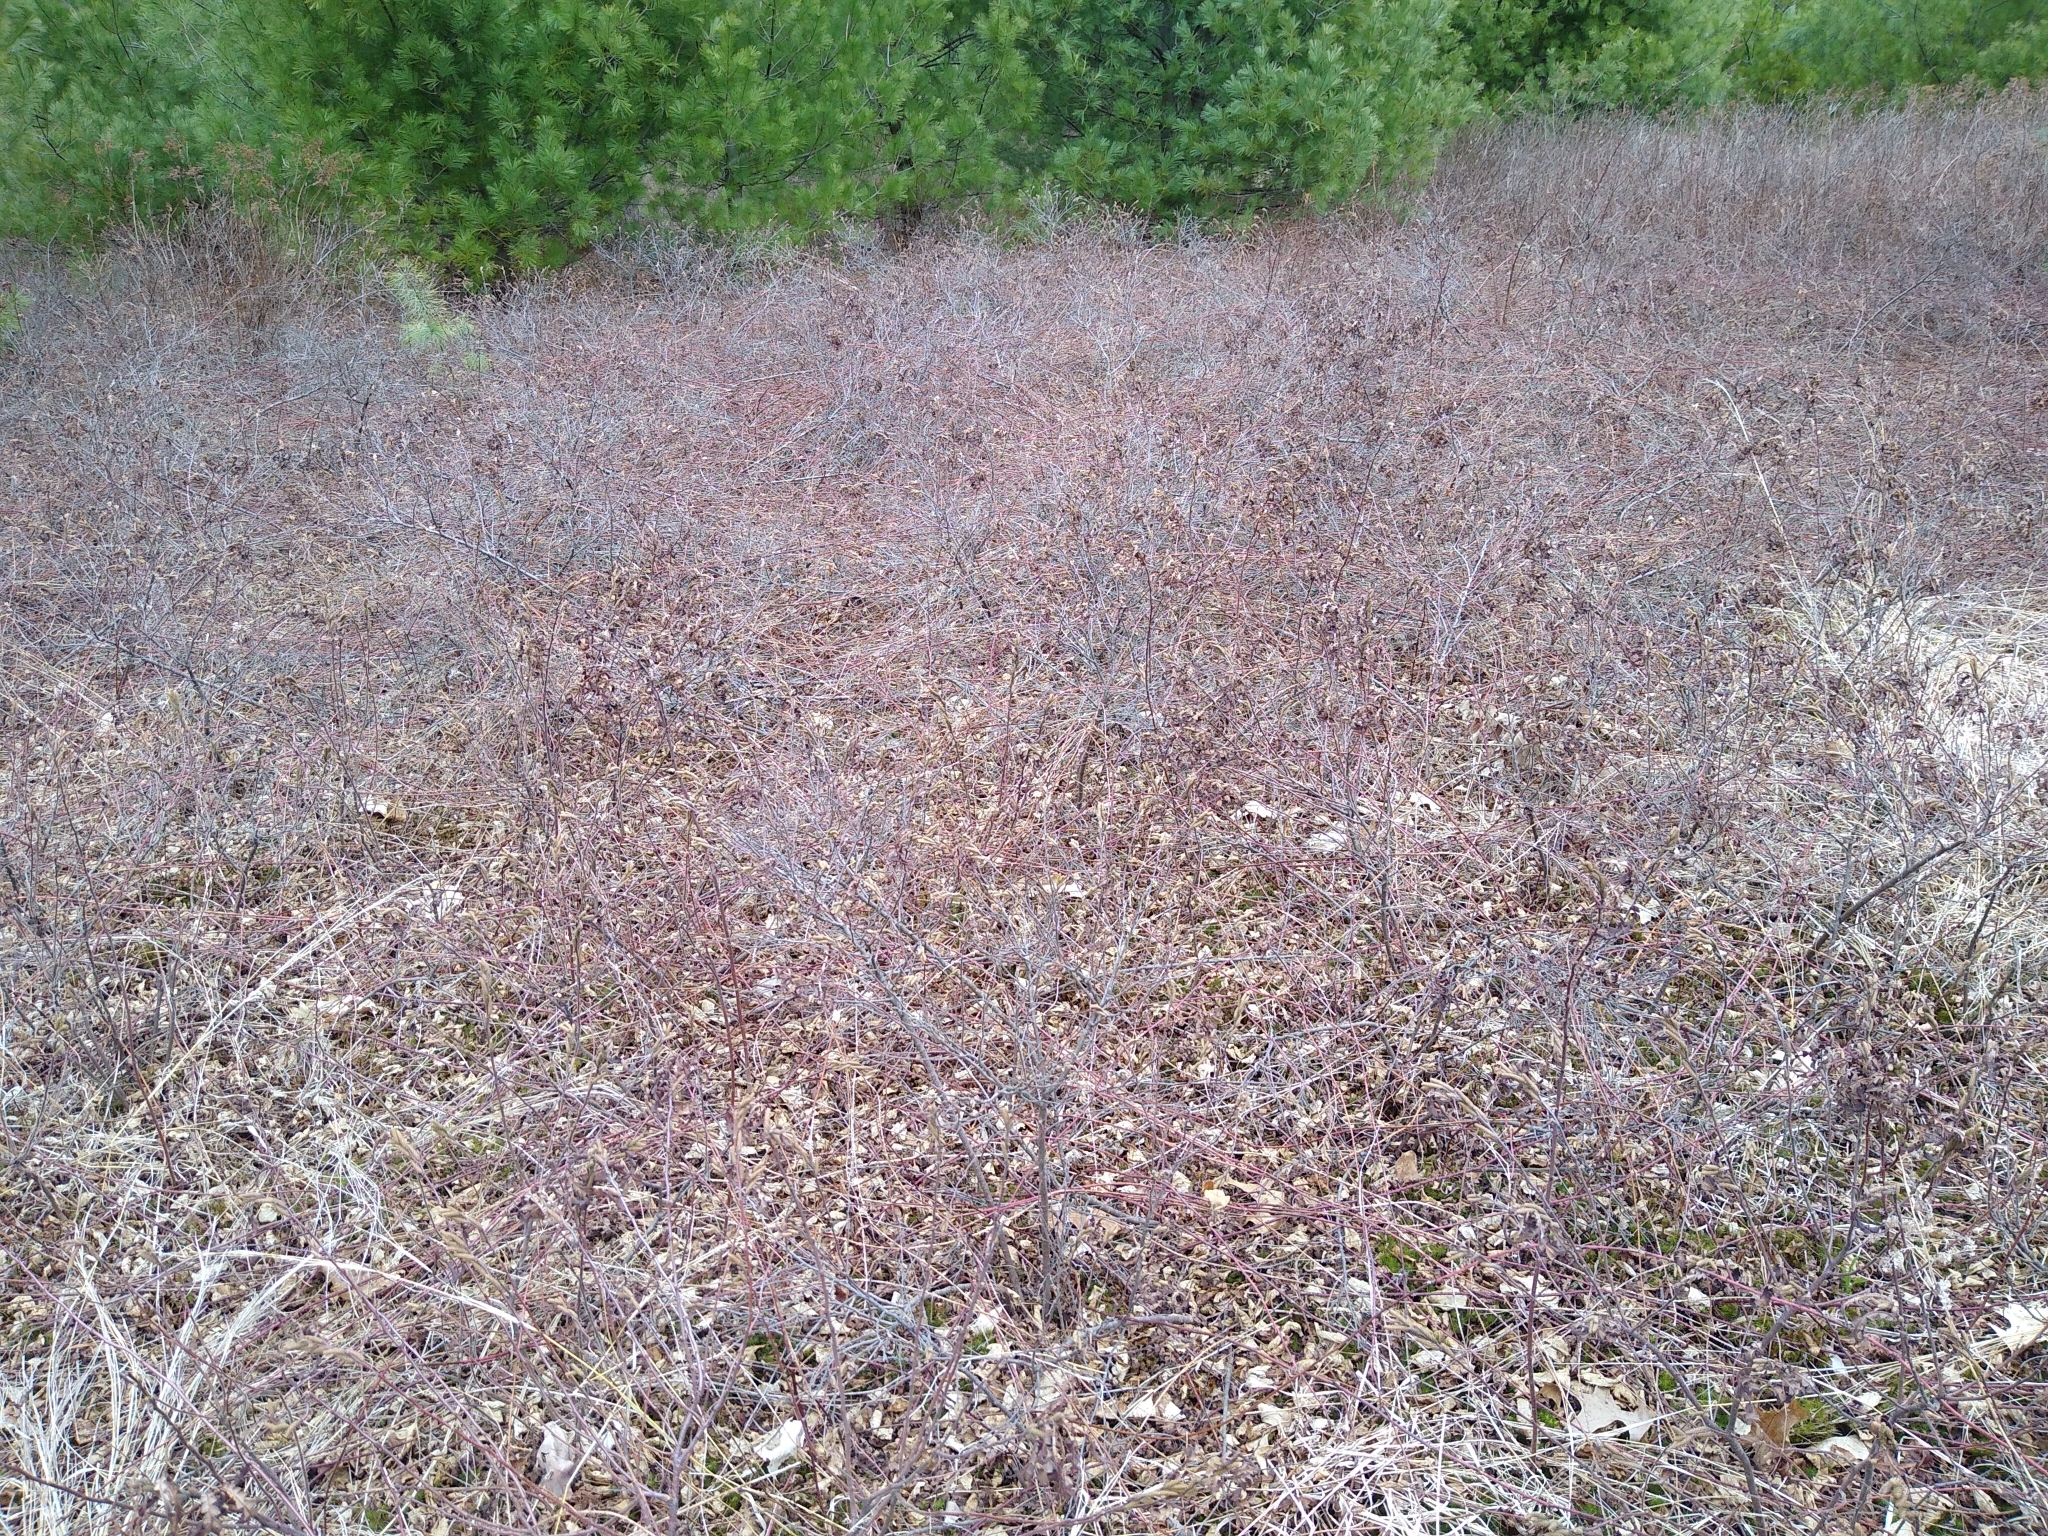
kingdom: Plantae
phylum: Tracheophyta
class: Magnoliopsida
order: Fagales
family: Myricaceae
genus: Comptonia
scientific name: Comptonia peregrina
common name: Sweet-fern
